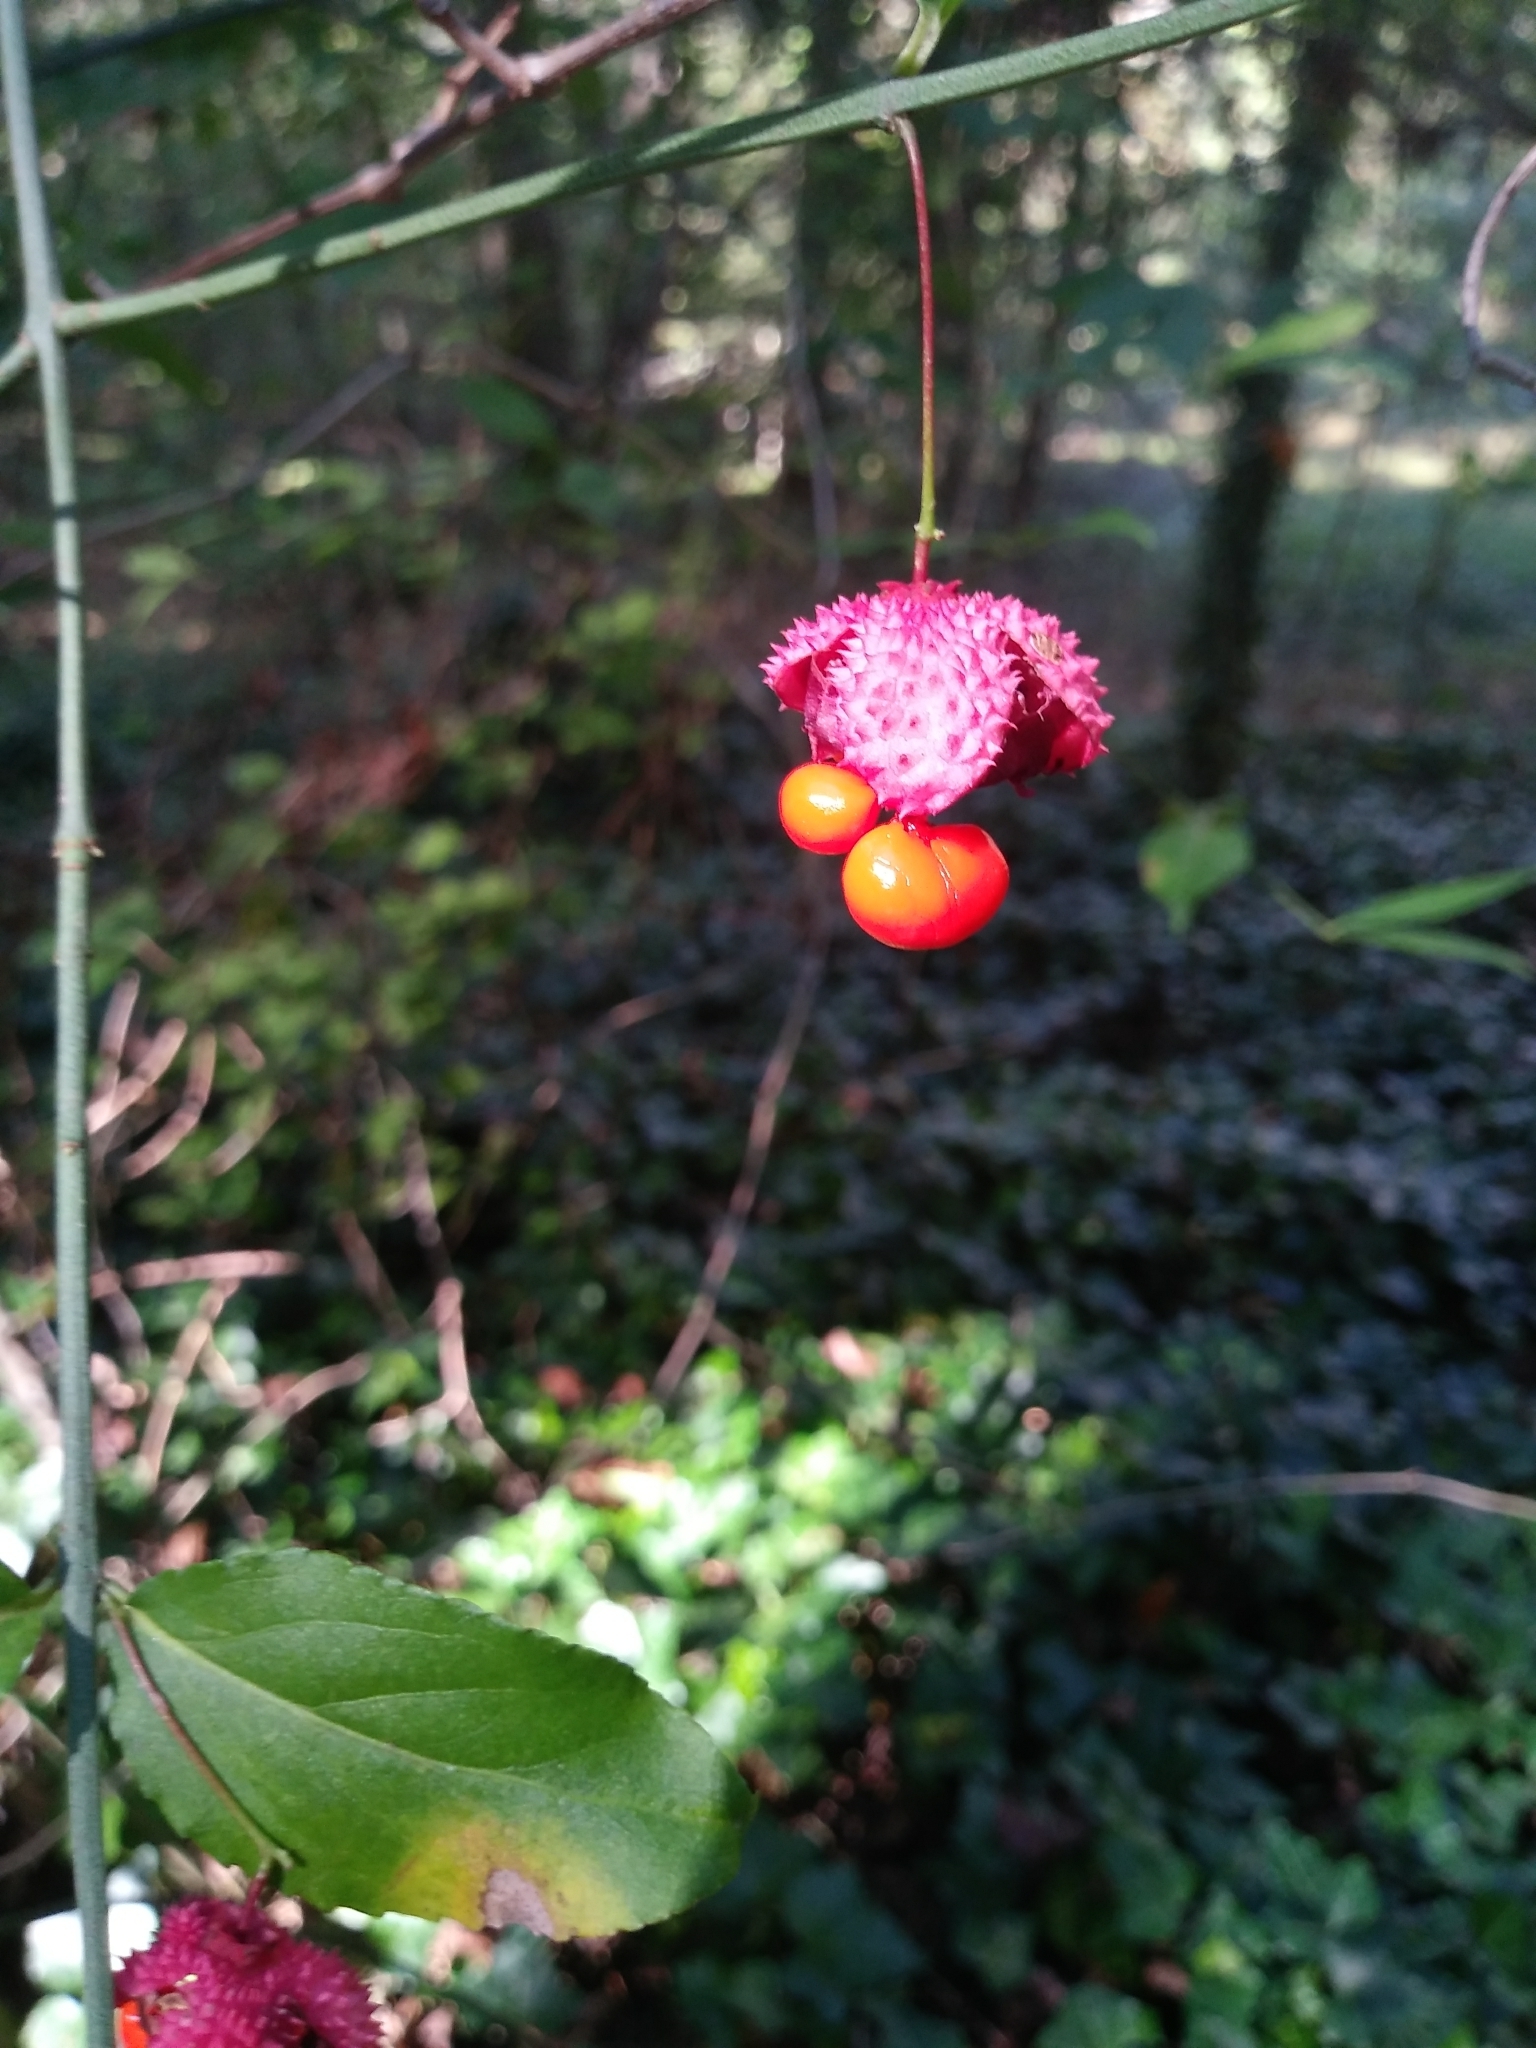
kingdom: Plantae
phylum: Tracheophyta
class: Magnoliopsida
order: Celastrales
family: Celastraceae
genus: Euonymus
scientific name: Euonymus americanus
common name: Bursting-heart
